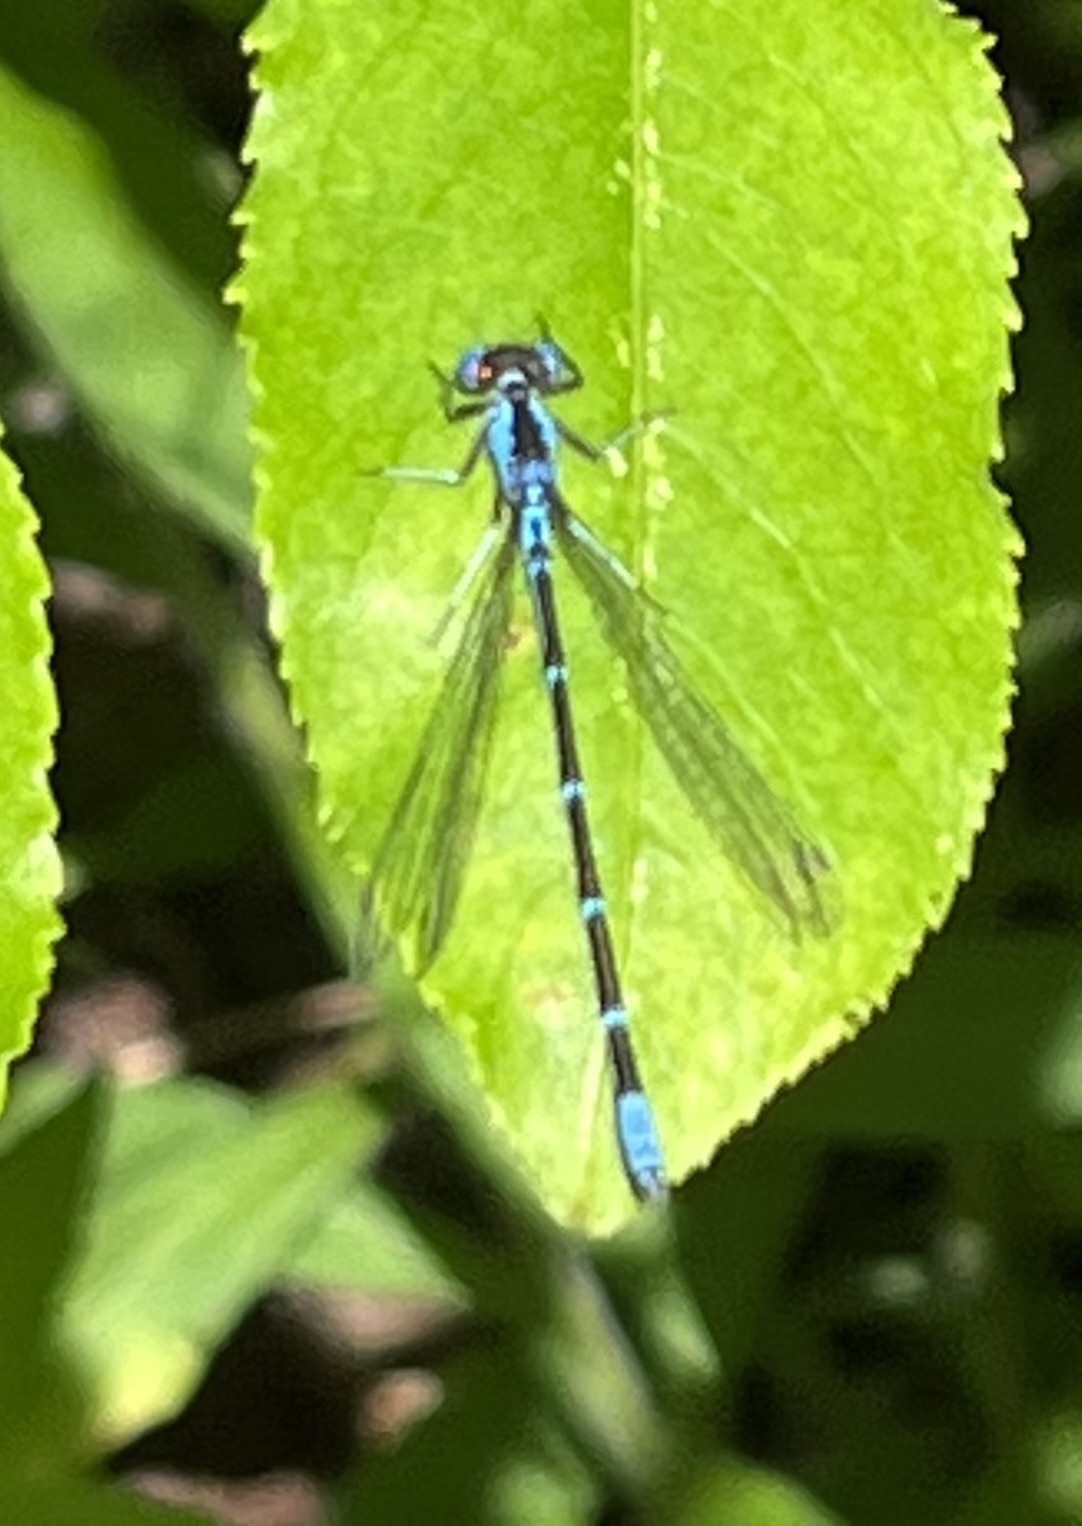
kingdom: Animalia
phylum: Arthropoda
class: Insecta
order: Odonata
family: Coenagrionidae
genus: Chromagrion
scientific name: Chromagrion conditum
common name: Aurora damsel
